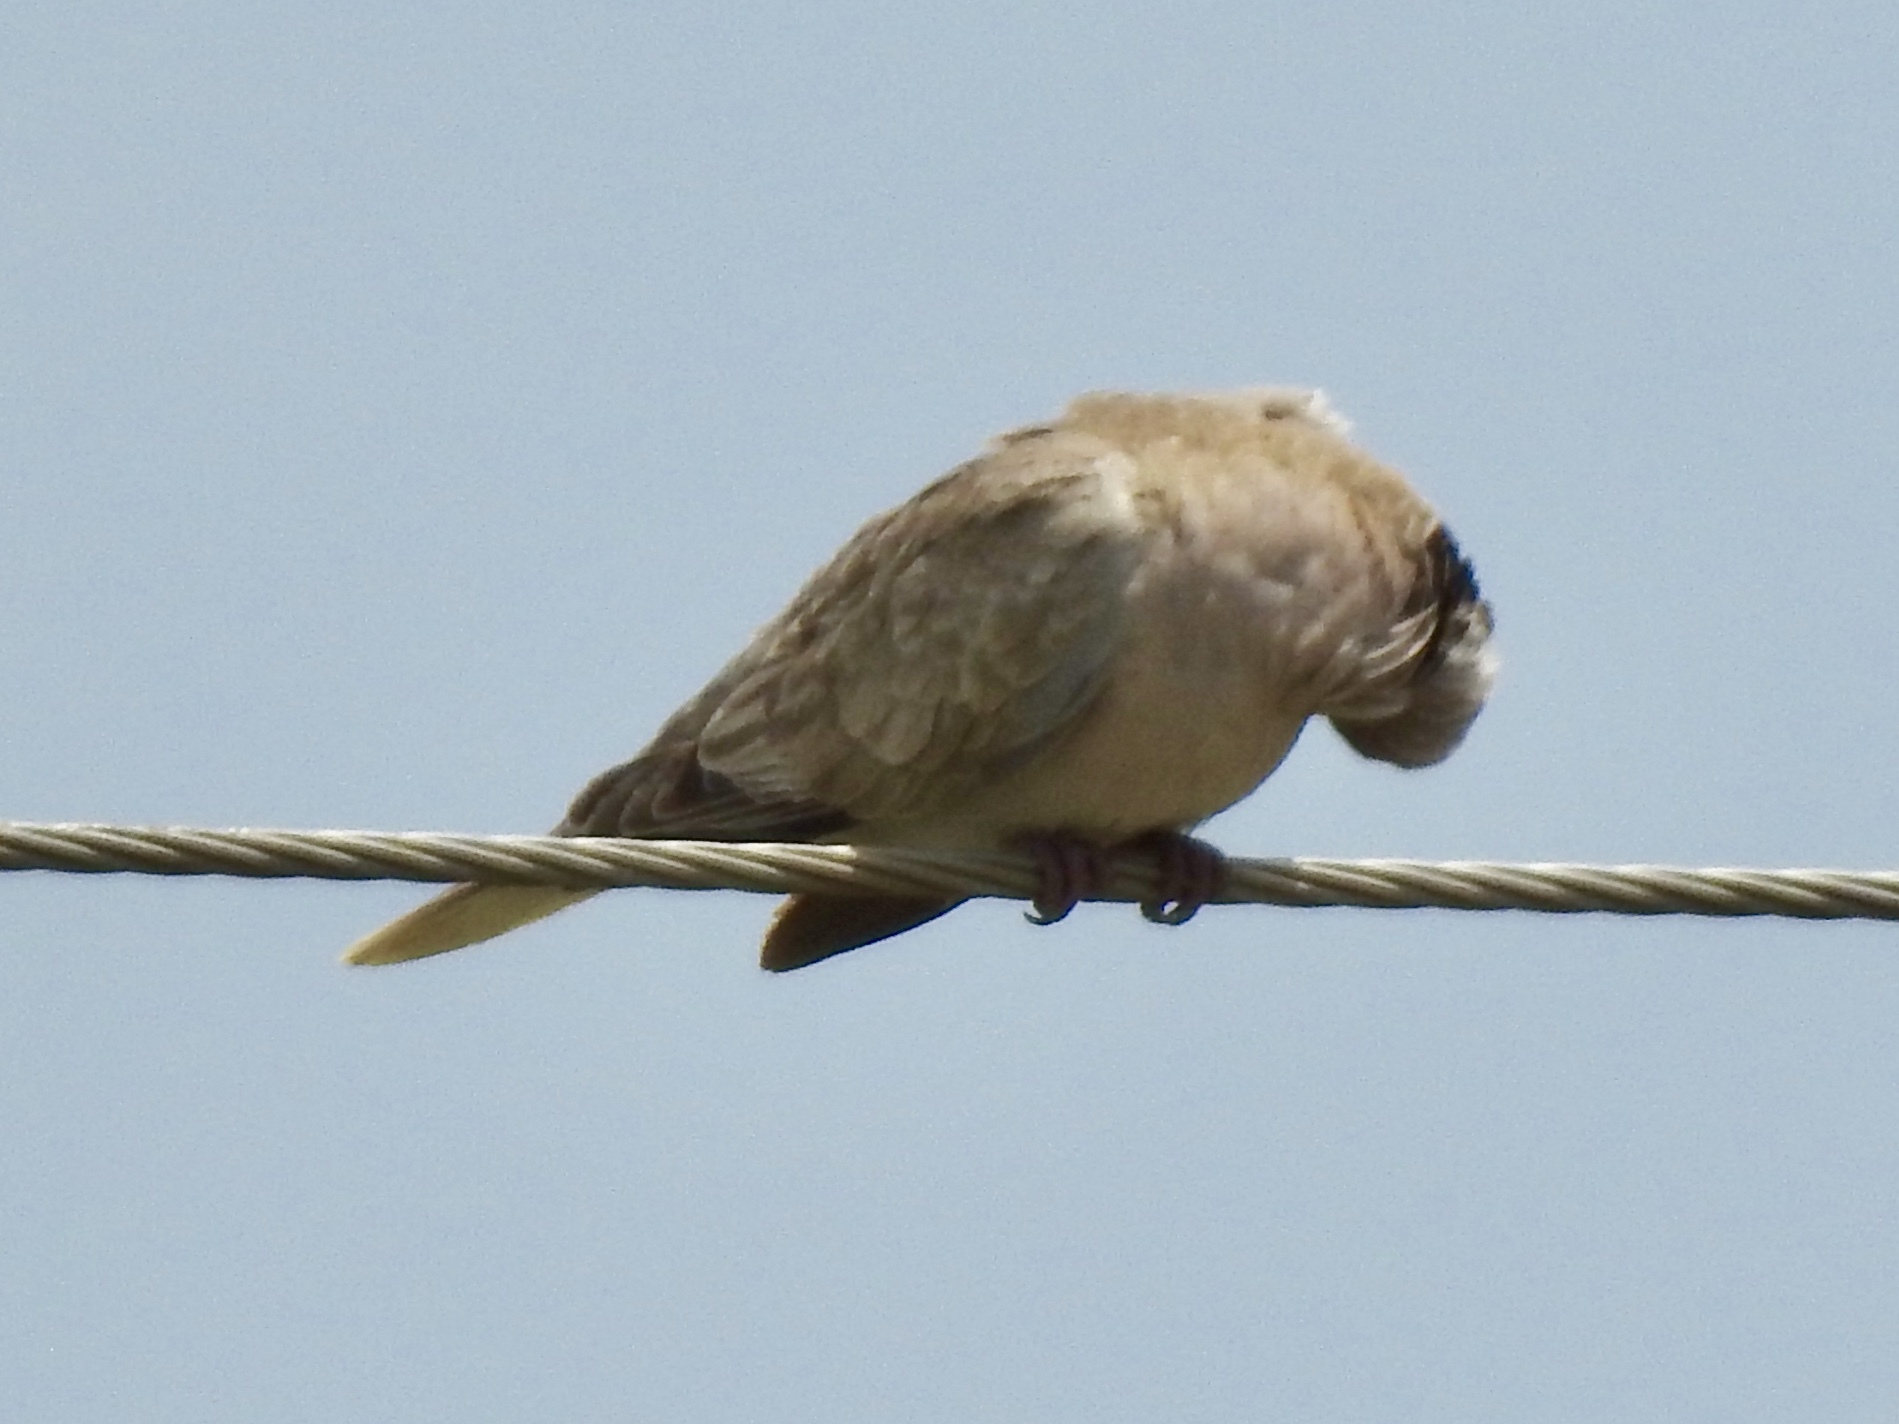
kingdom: Animalia
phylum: Chordata
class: Aves
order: Columbiformes
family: Columbidae
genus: Streptopelia
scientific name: Streptopelia decaocto
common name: Eurasian collared dove
